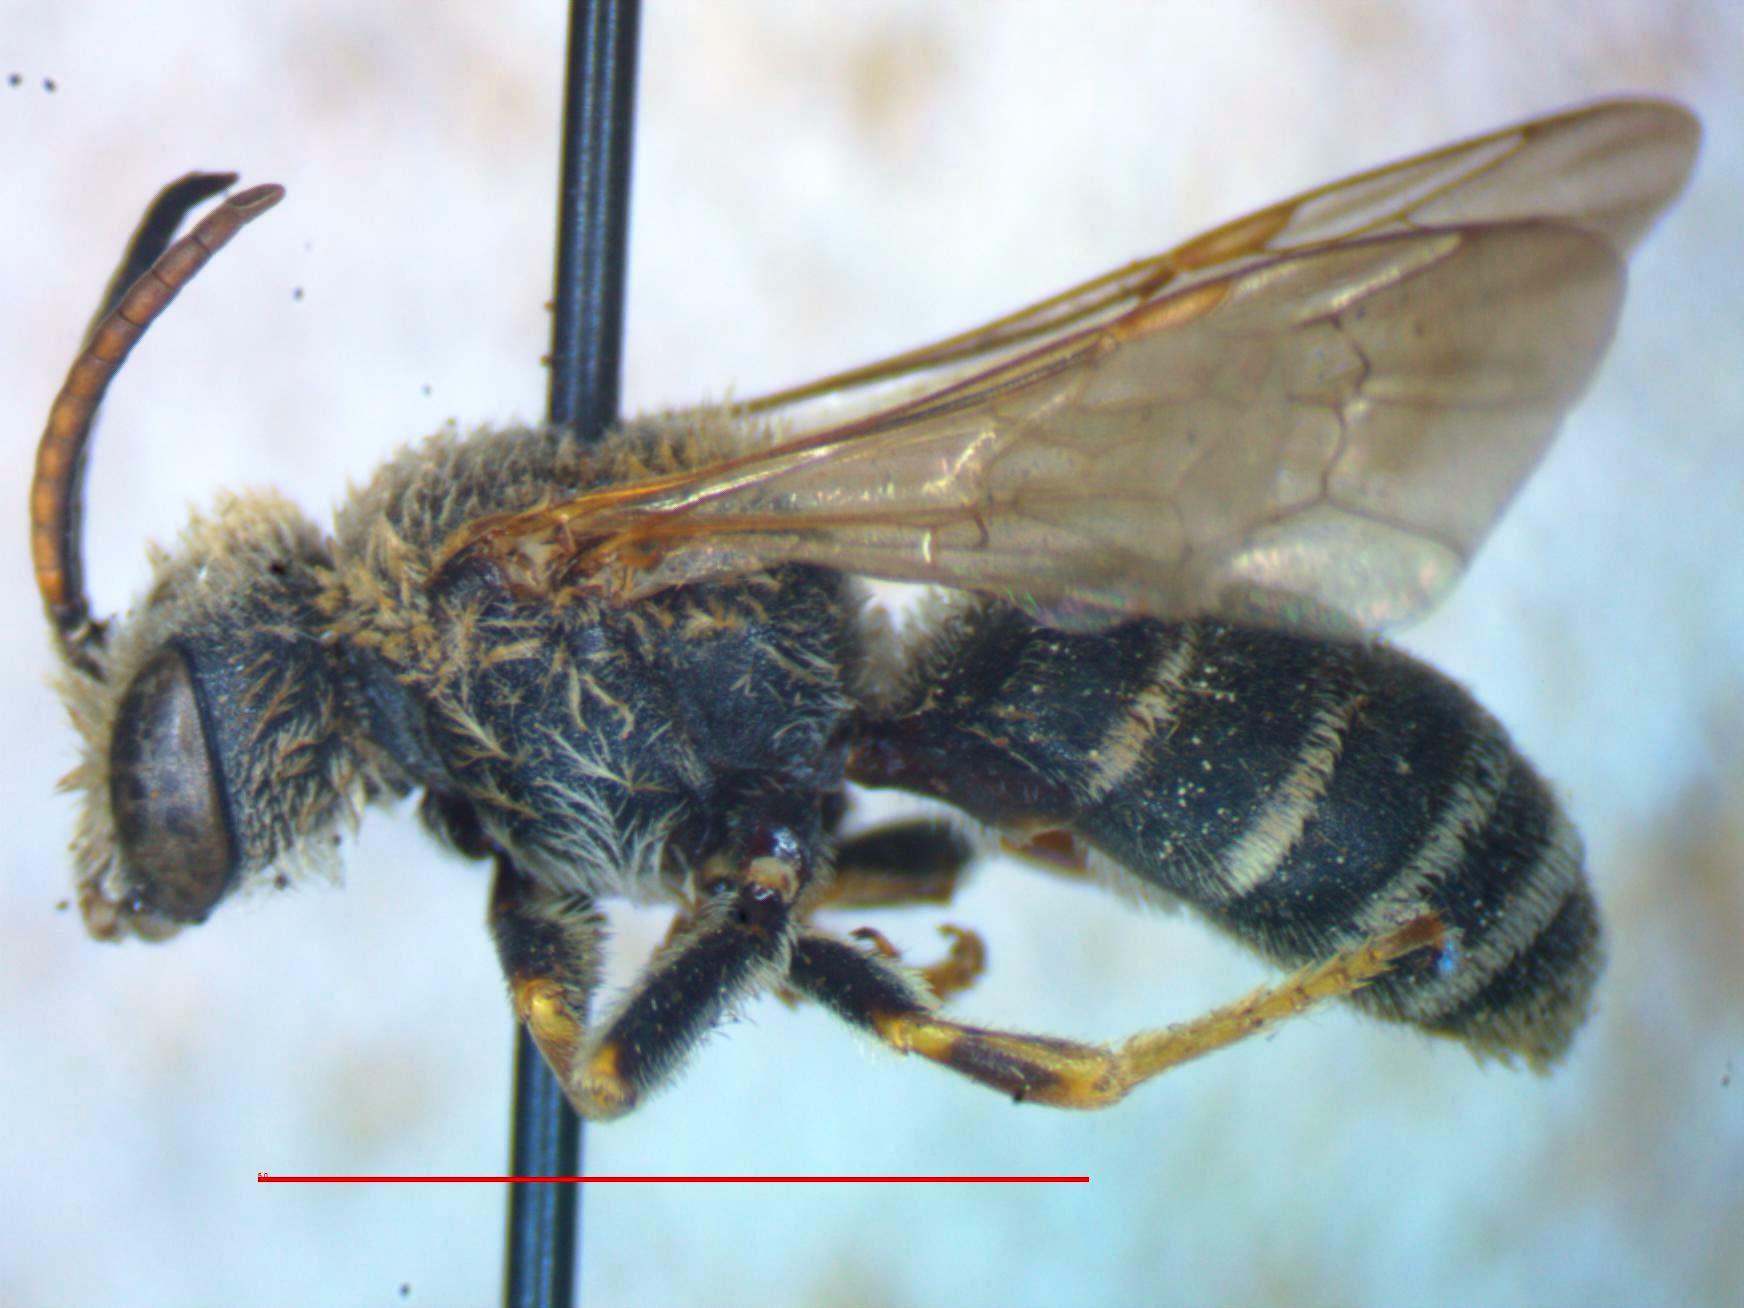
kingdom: Animalia
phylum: Arthropoda
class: Insecta
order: Hymenoptera
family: Halictidae
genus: Halictus
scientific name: Halictus ligatus
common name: Ligated furrow bee
